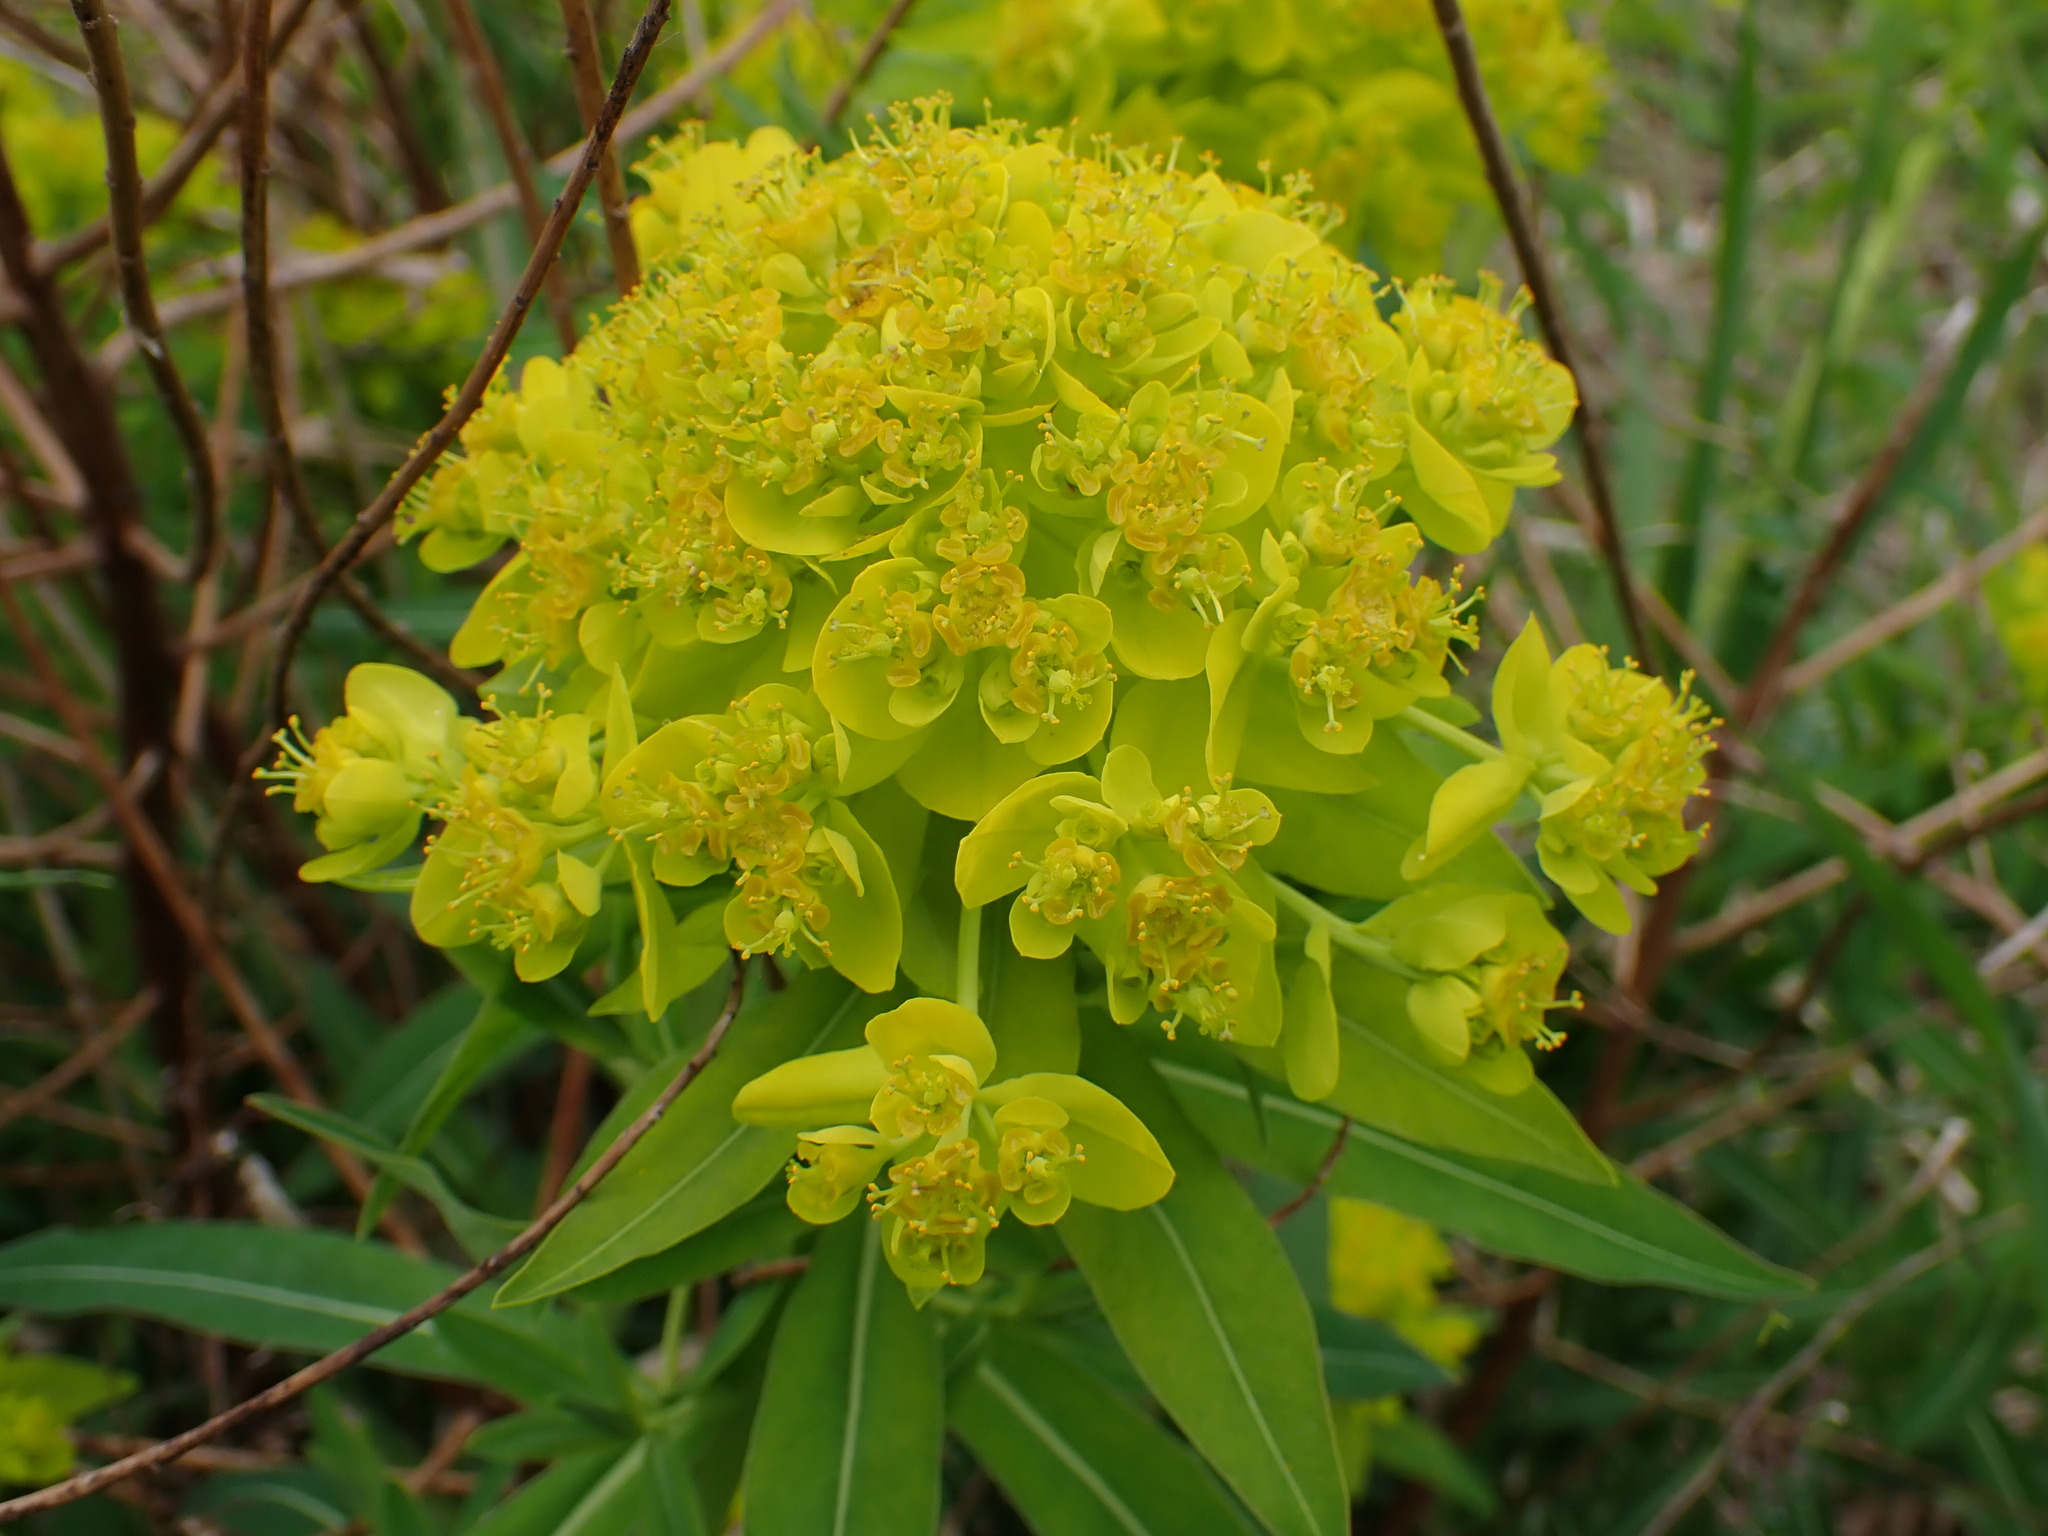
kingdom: Plantae
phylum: Tracheophyta
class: Magnoliopsida
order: Malpighiales
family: Euphorbiaceae
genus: Euphorbia
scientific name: Euphorbia palustris
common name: Marsh spurge
